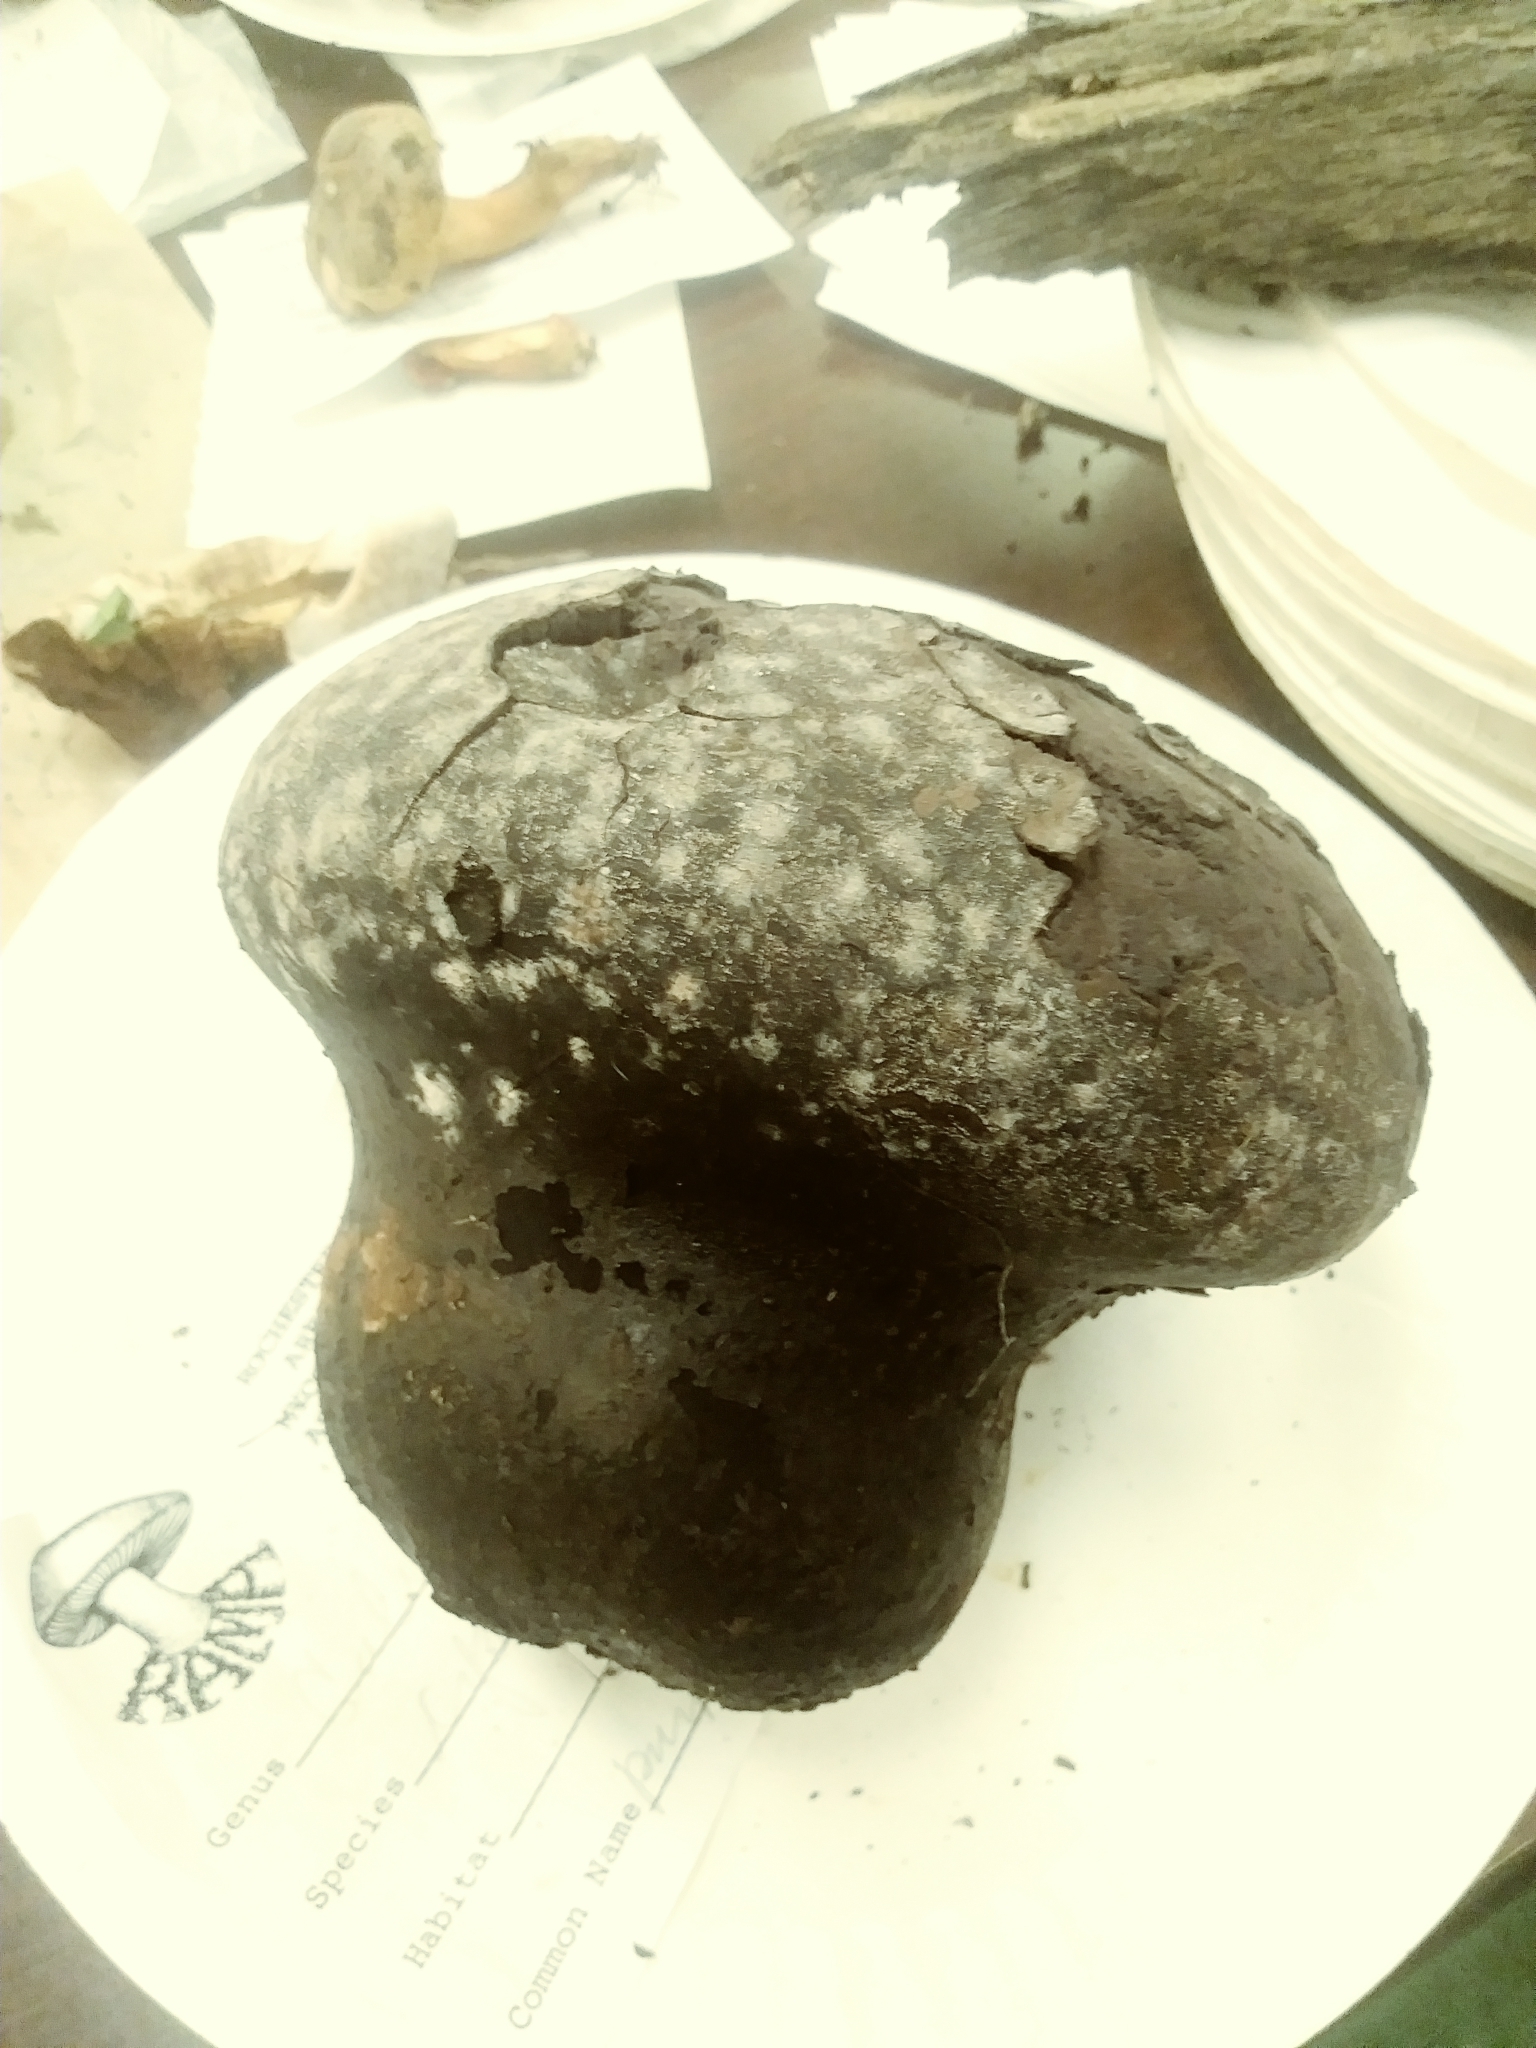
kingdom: Fungi
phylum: Basidiomycota
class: Agaricomycetes
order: Agaricales
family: Lycoperdaceae
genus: Calvatia
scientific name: Calvatia cyathiformis
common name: Purple-spored puffball
